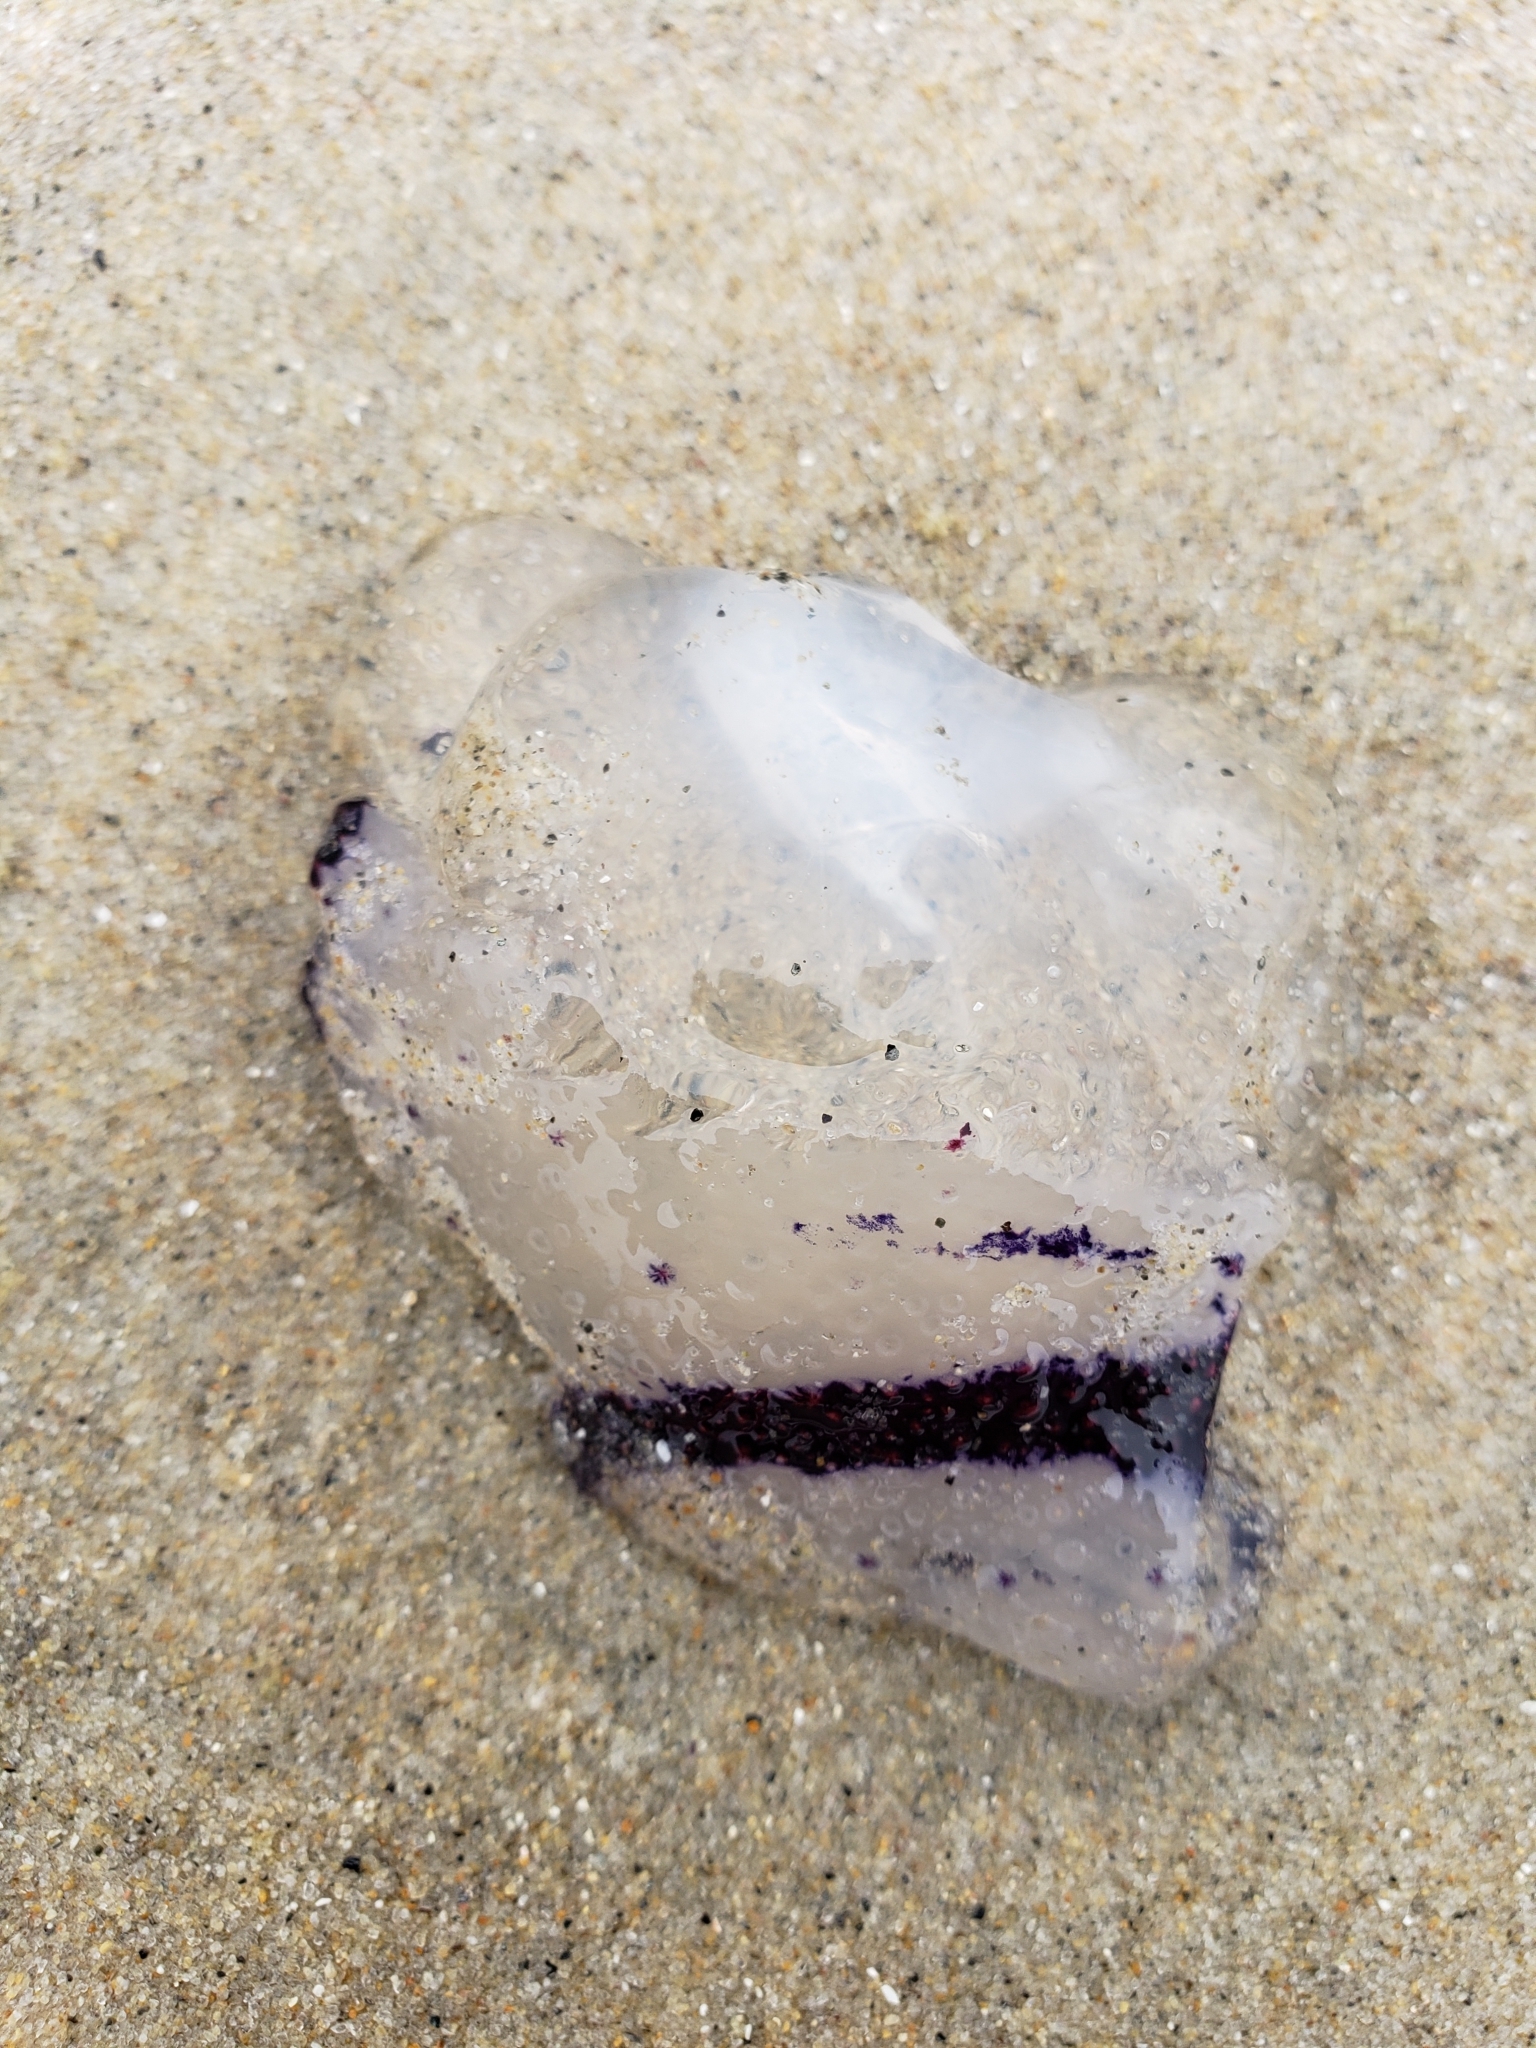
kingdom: Animalia
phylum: Cnidaria
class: Scyphozoa
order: Semaeostomeae
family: Pelagiidae
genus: Chrysaora
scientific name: Chrysaora colorata
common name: Purple-striped jellyfish
